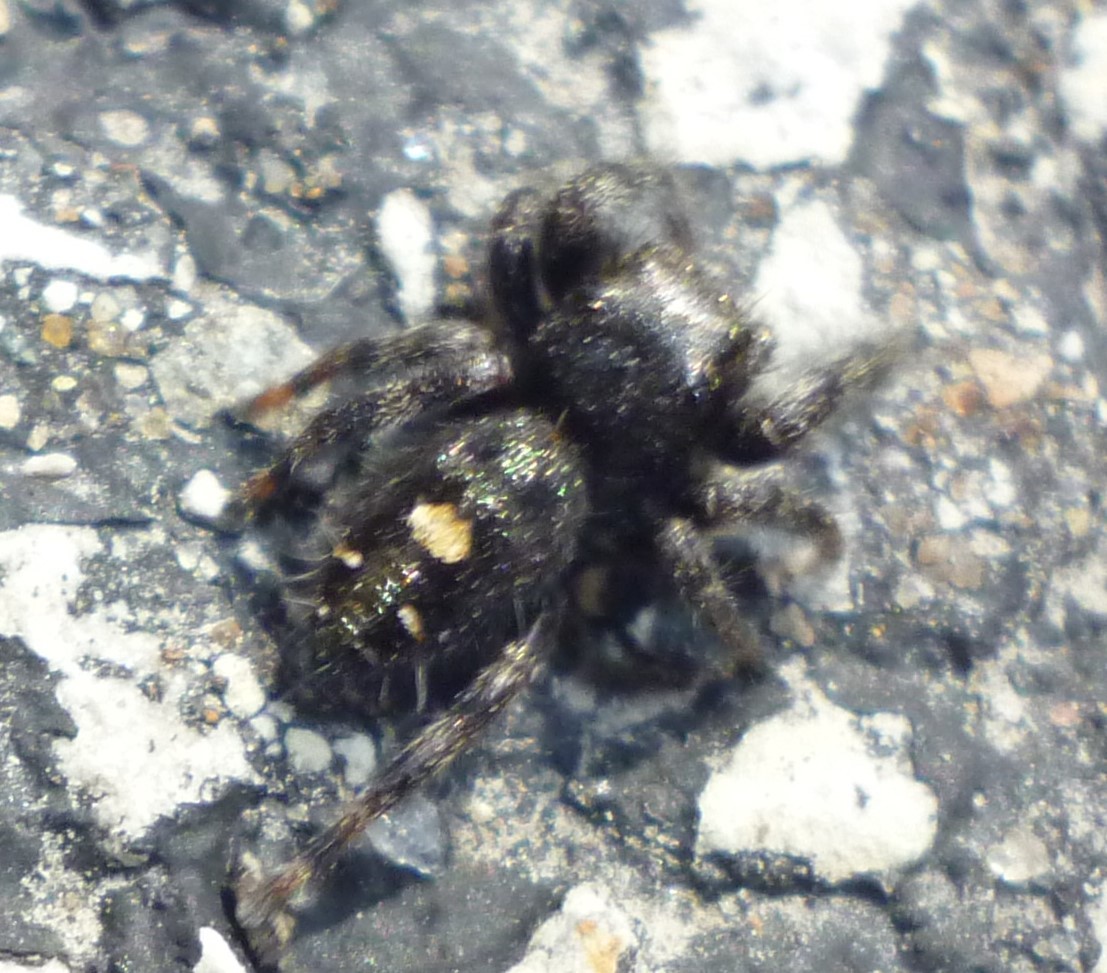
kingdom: Animalia
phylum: Arthropoda
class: Arachnida
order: Araneae
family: Salticidae
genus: Phidippus
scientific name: Phidippus audax
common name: Bold jumper
